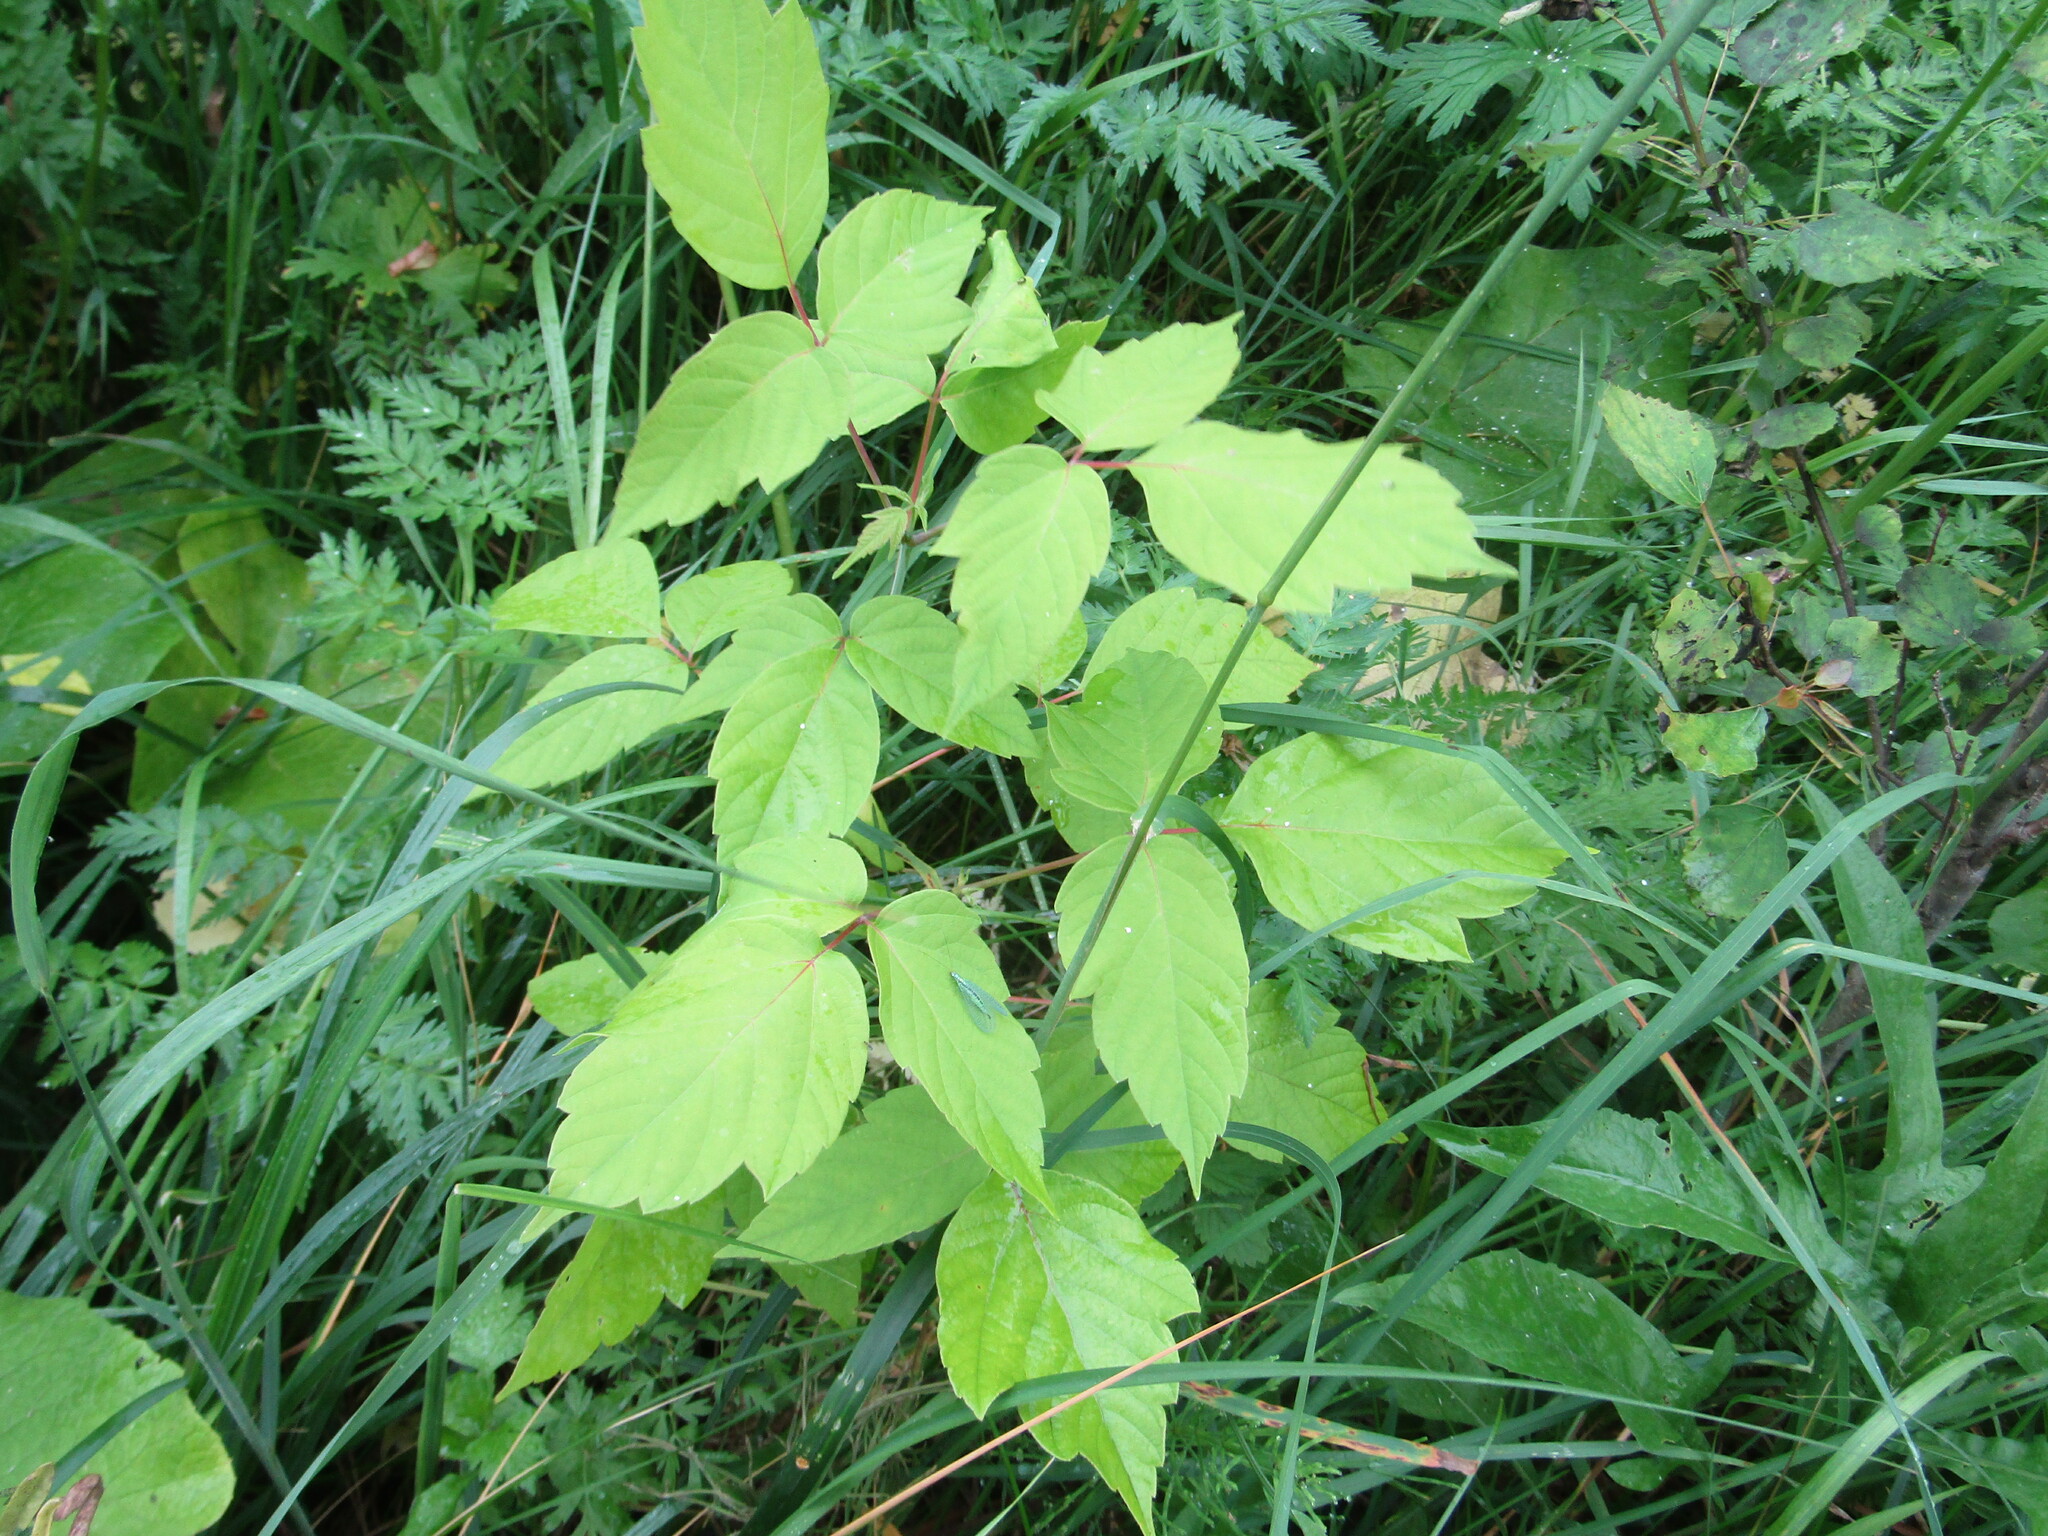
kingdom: Plantae
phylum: Tracheophyta
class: Magnoliopsida
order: Sapindales
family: Sapindaceae
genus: Acer
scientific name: Acer negundo
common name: Ashleaf maple
